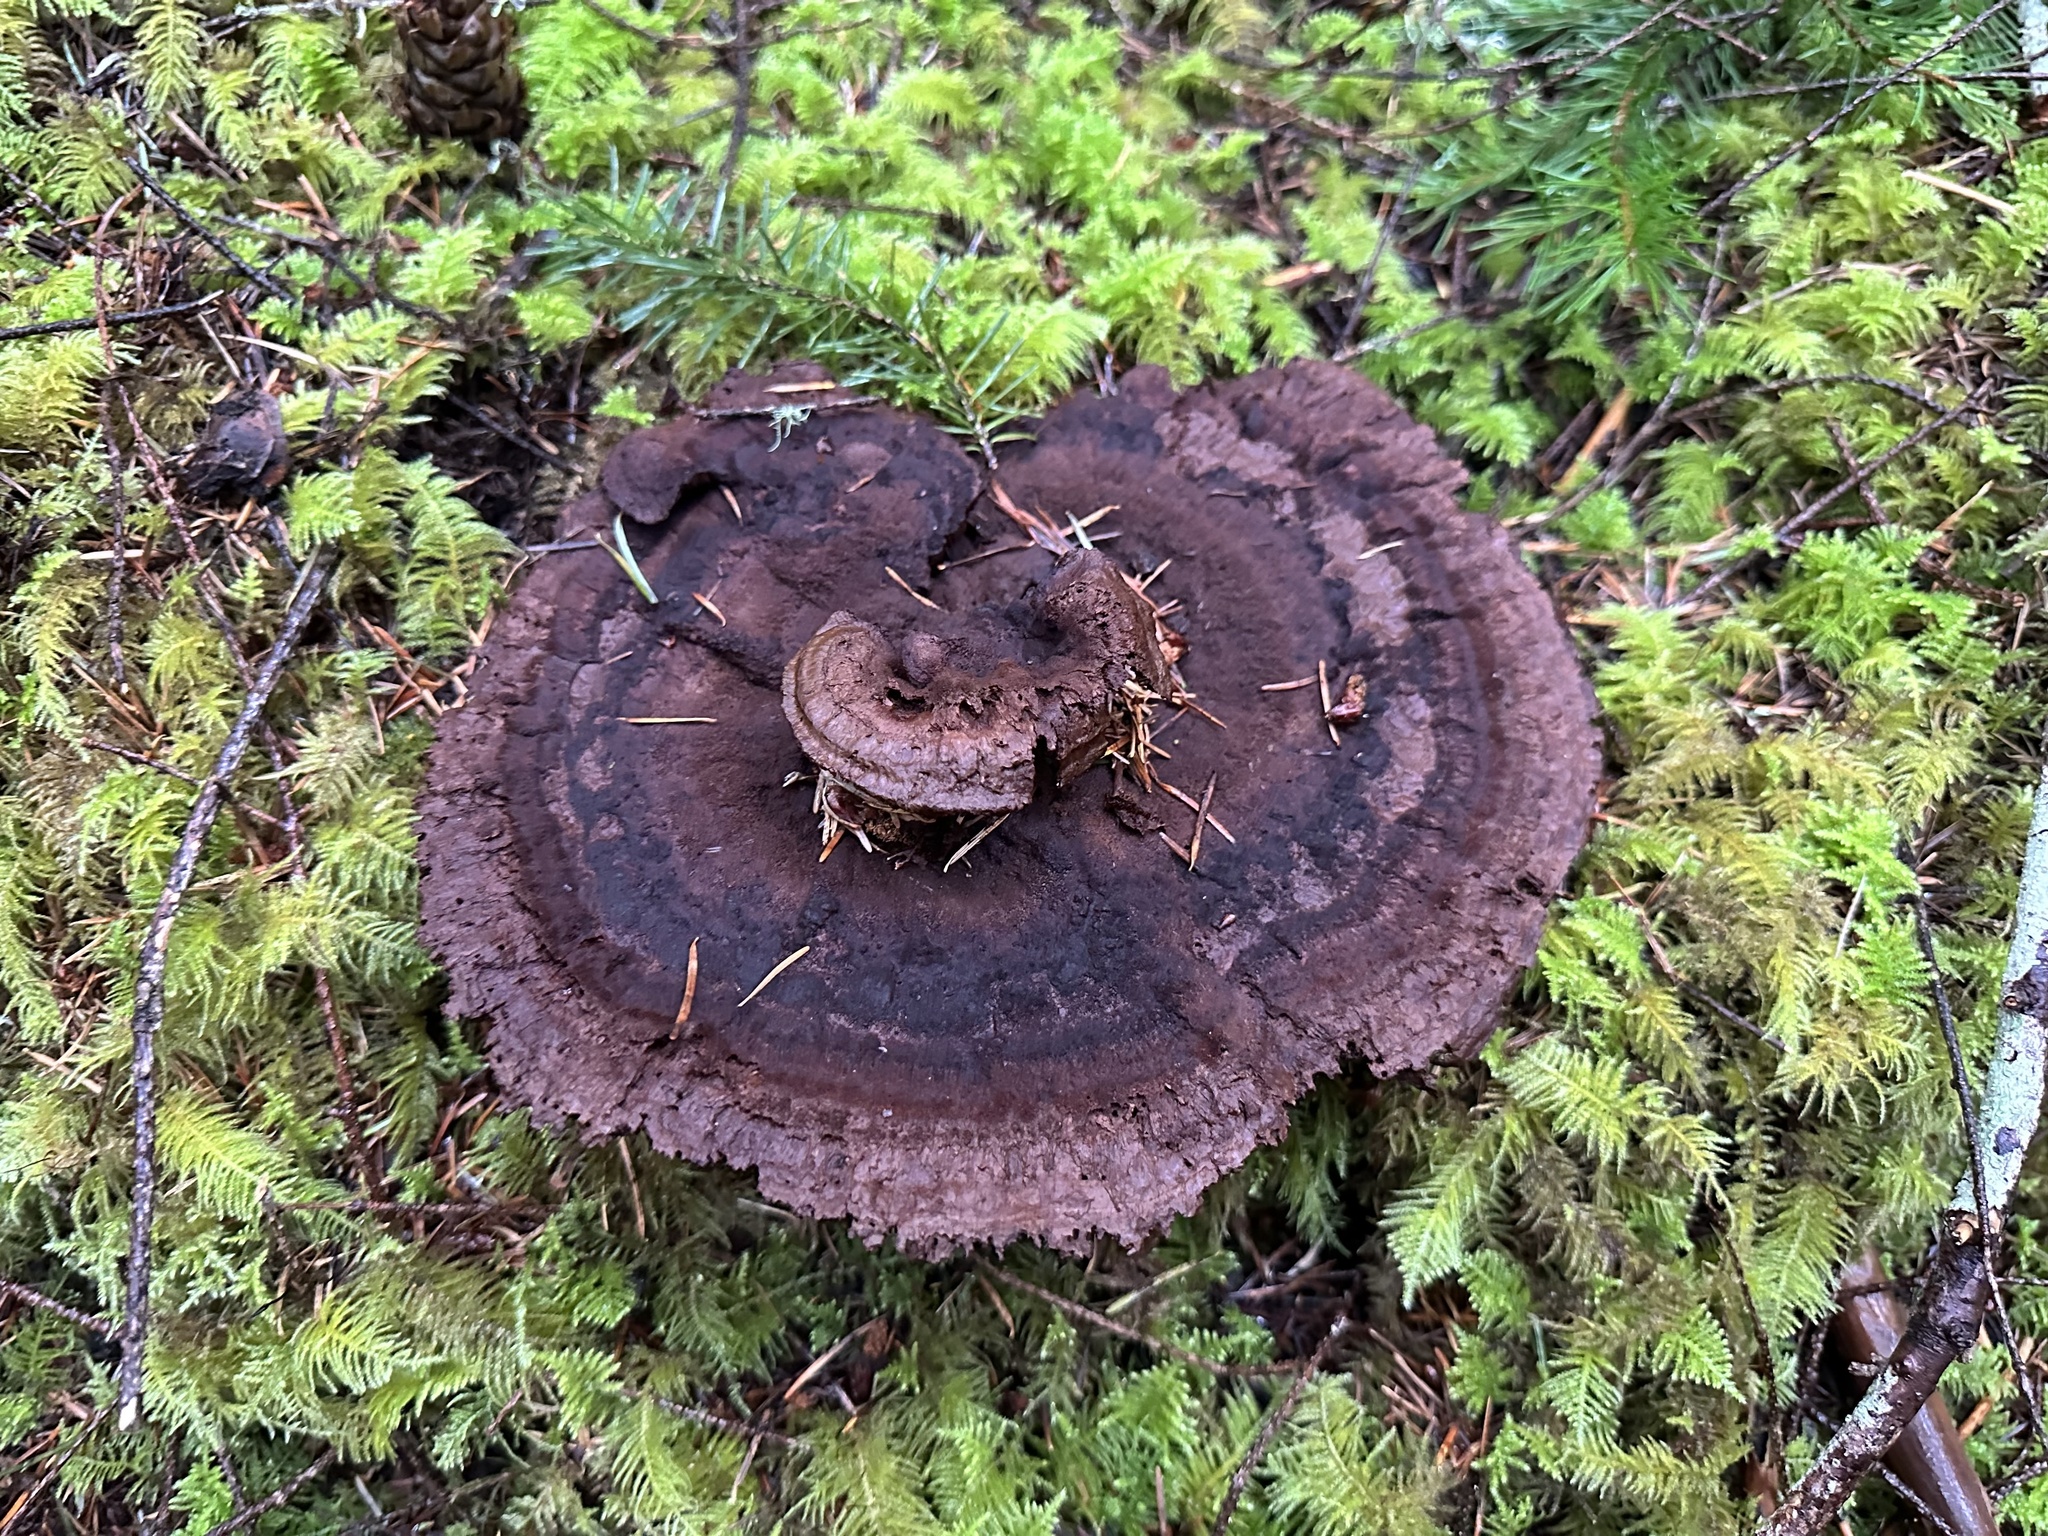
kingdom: Fungi
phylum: Basidiomycota
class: Agaricomycetes
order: Polyporales
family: Laetiporaceae
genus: Phaeolus
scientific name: Phaeolus schweinitzii
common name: Dyer's mazegill
